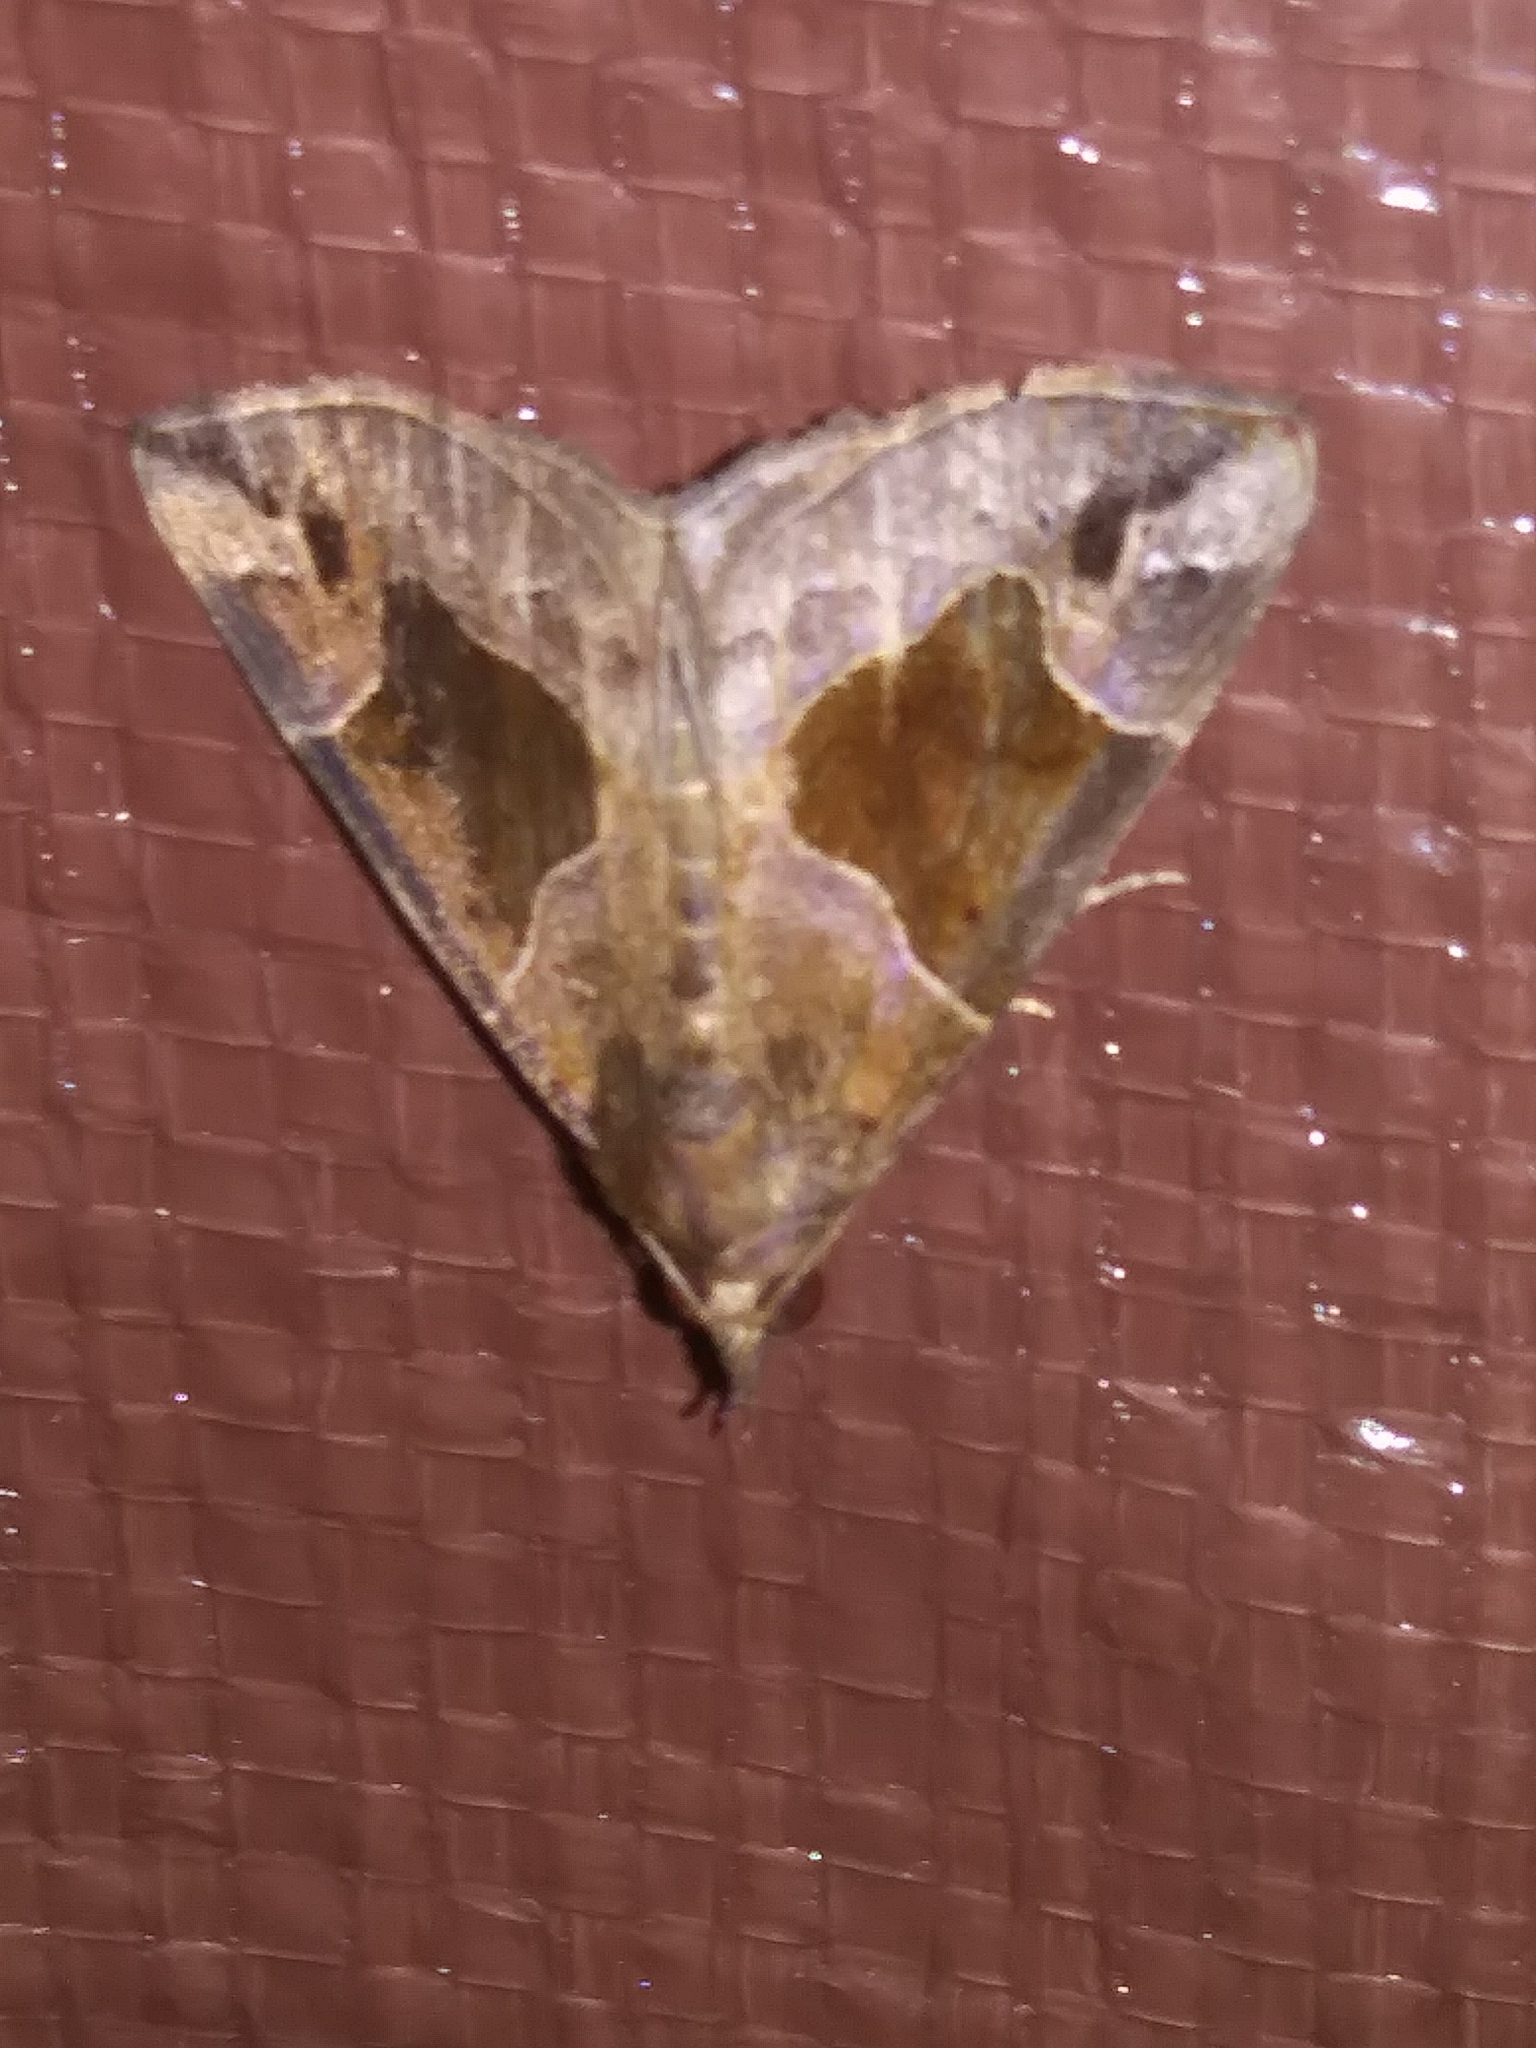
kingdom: Animalia
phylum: Arthropoda
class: Insecta
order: Lepidoptera
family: Erebidae
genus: Hypena
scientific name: Hypena manalis
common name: Flowing-line bomolocha moth
